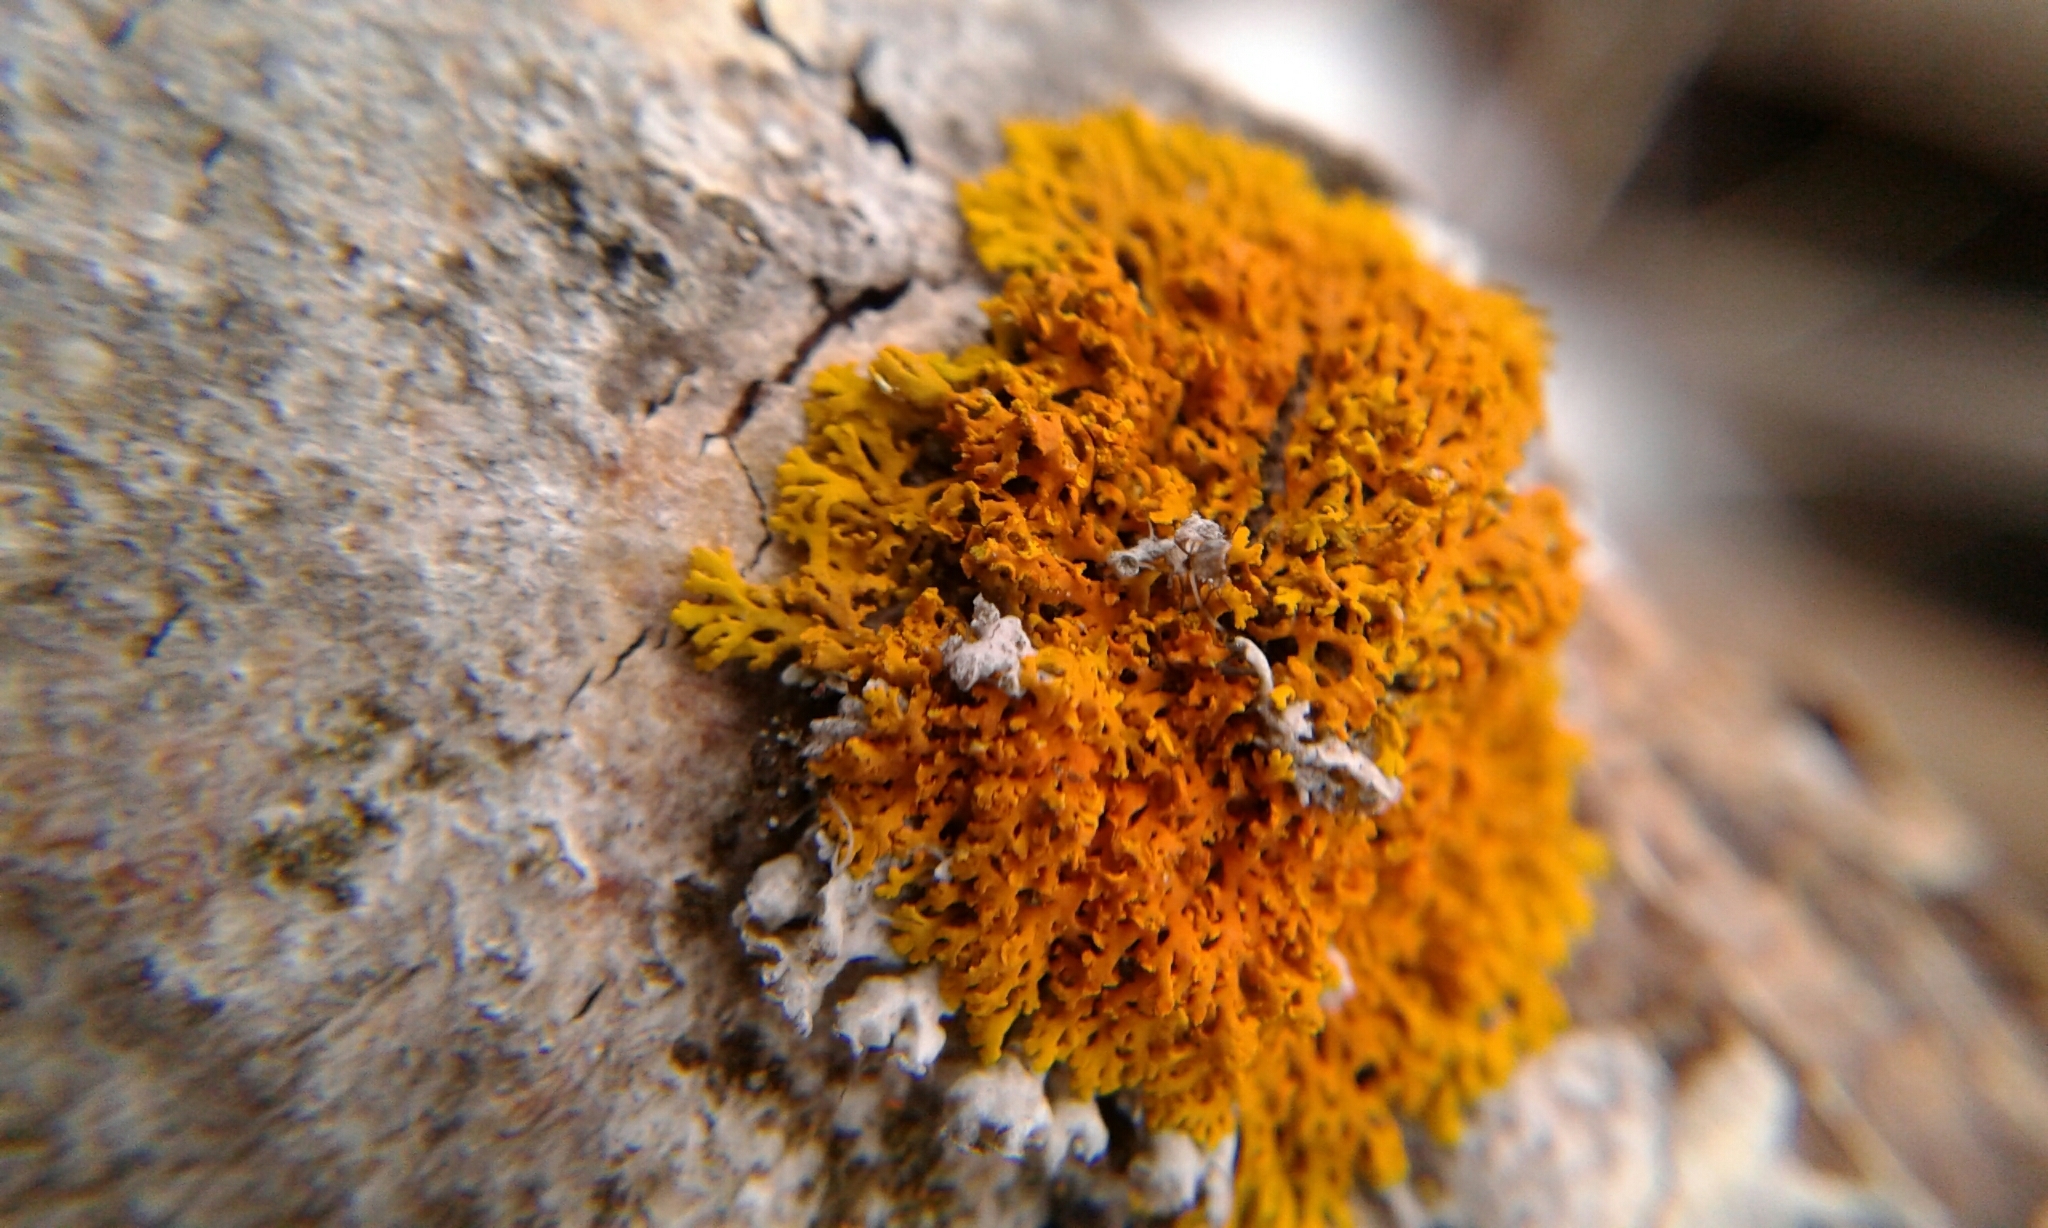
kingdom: Fungi
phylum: Ascomycota
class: Lecanoromycetes
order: Teloschistales
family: Teloschistaceae
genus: Gallowayella
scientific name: Gallowayella weberi
